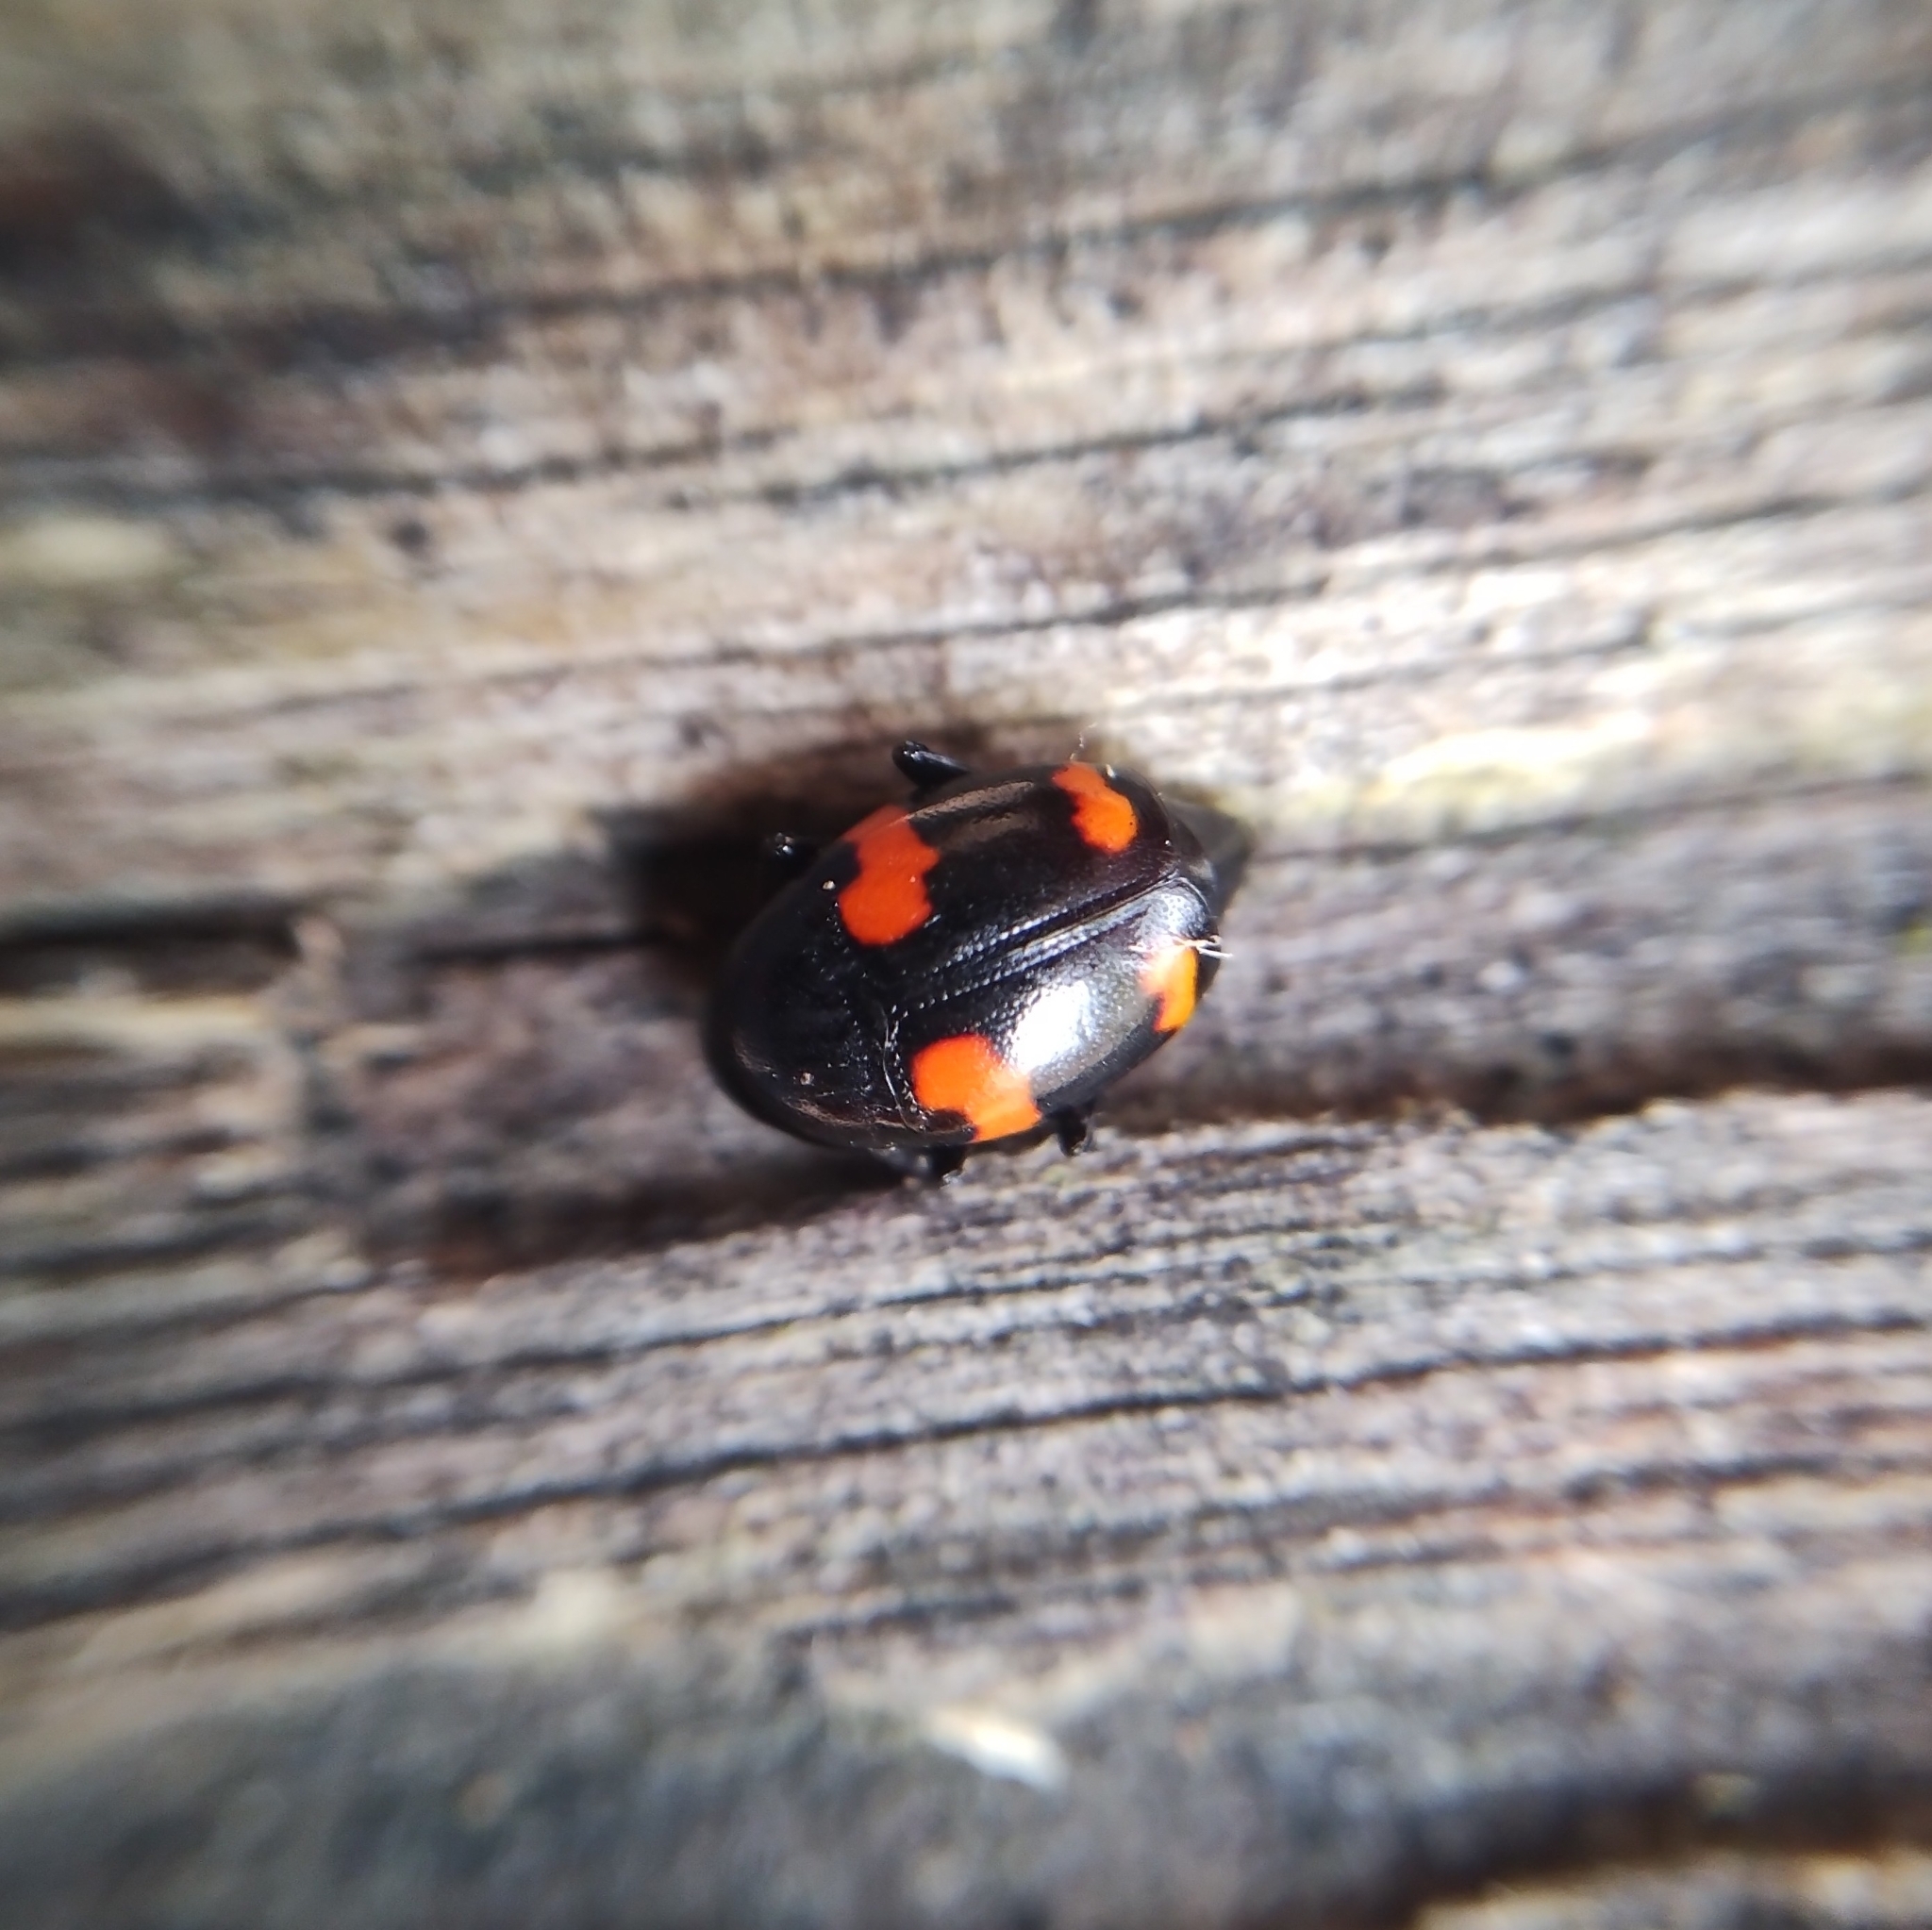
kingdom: Animalia
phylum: Arthropoda
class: Insecta
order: Coleoptera
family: Staphylinidae
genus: Scaphidium
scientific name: Scaphidium quadrimaculatum
